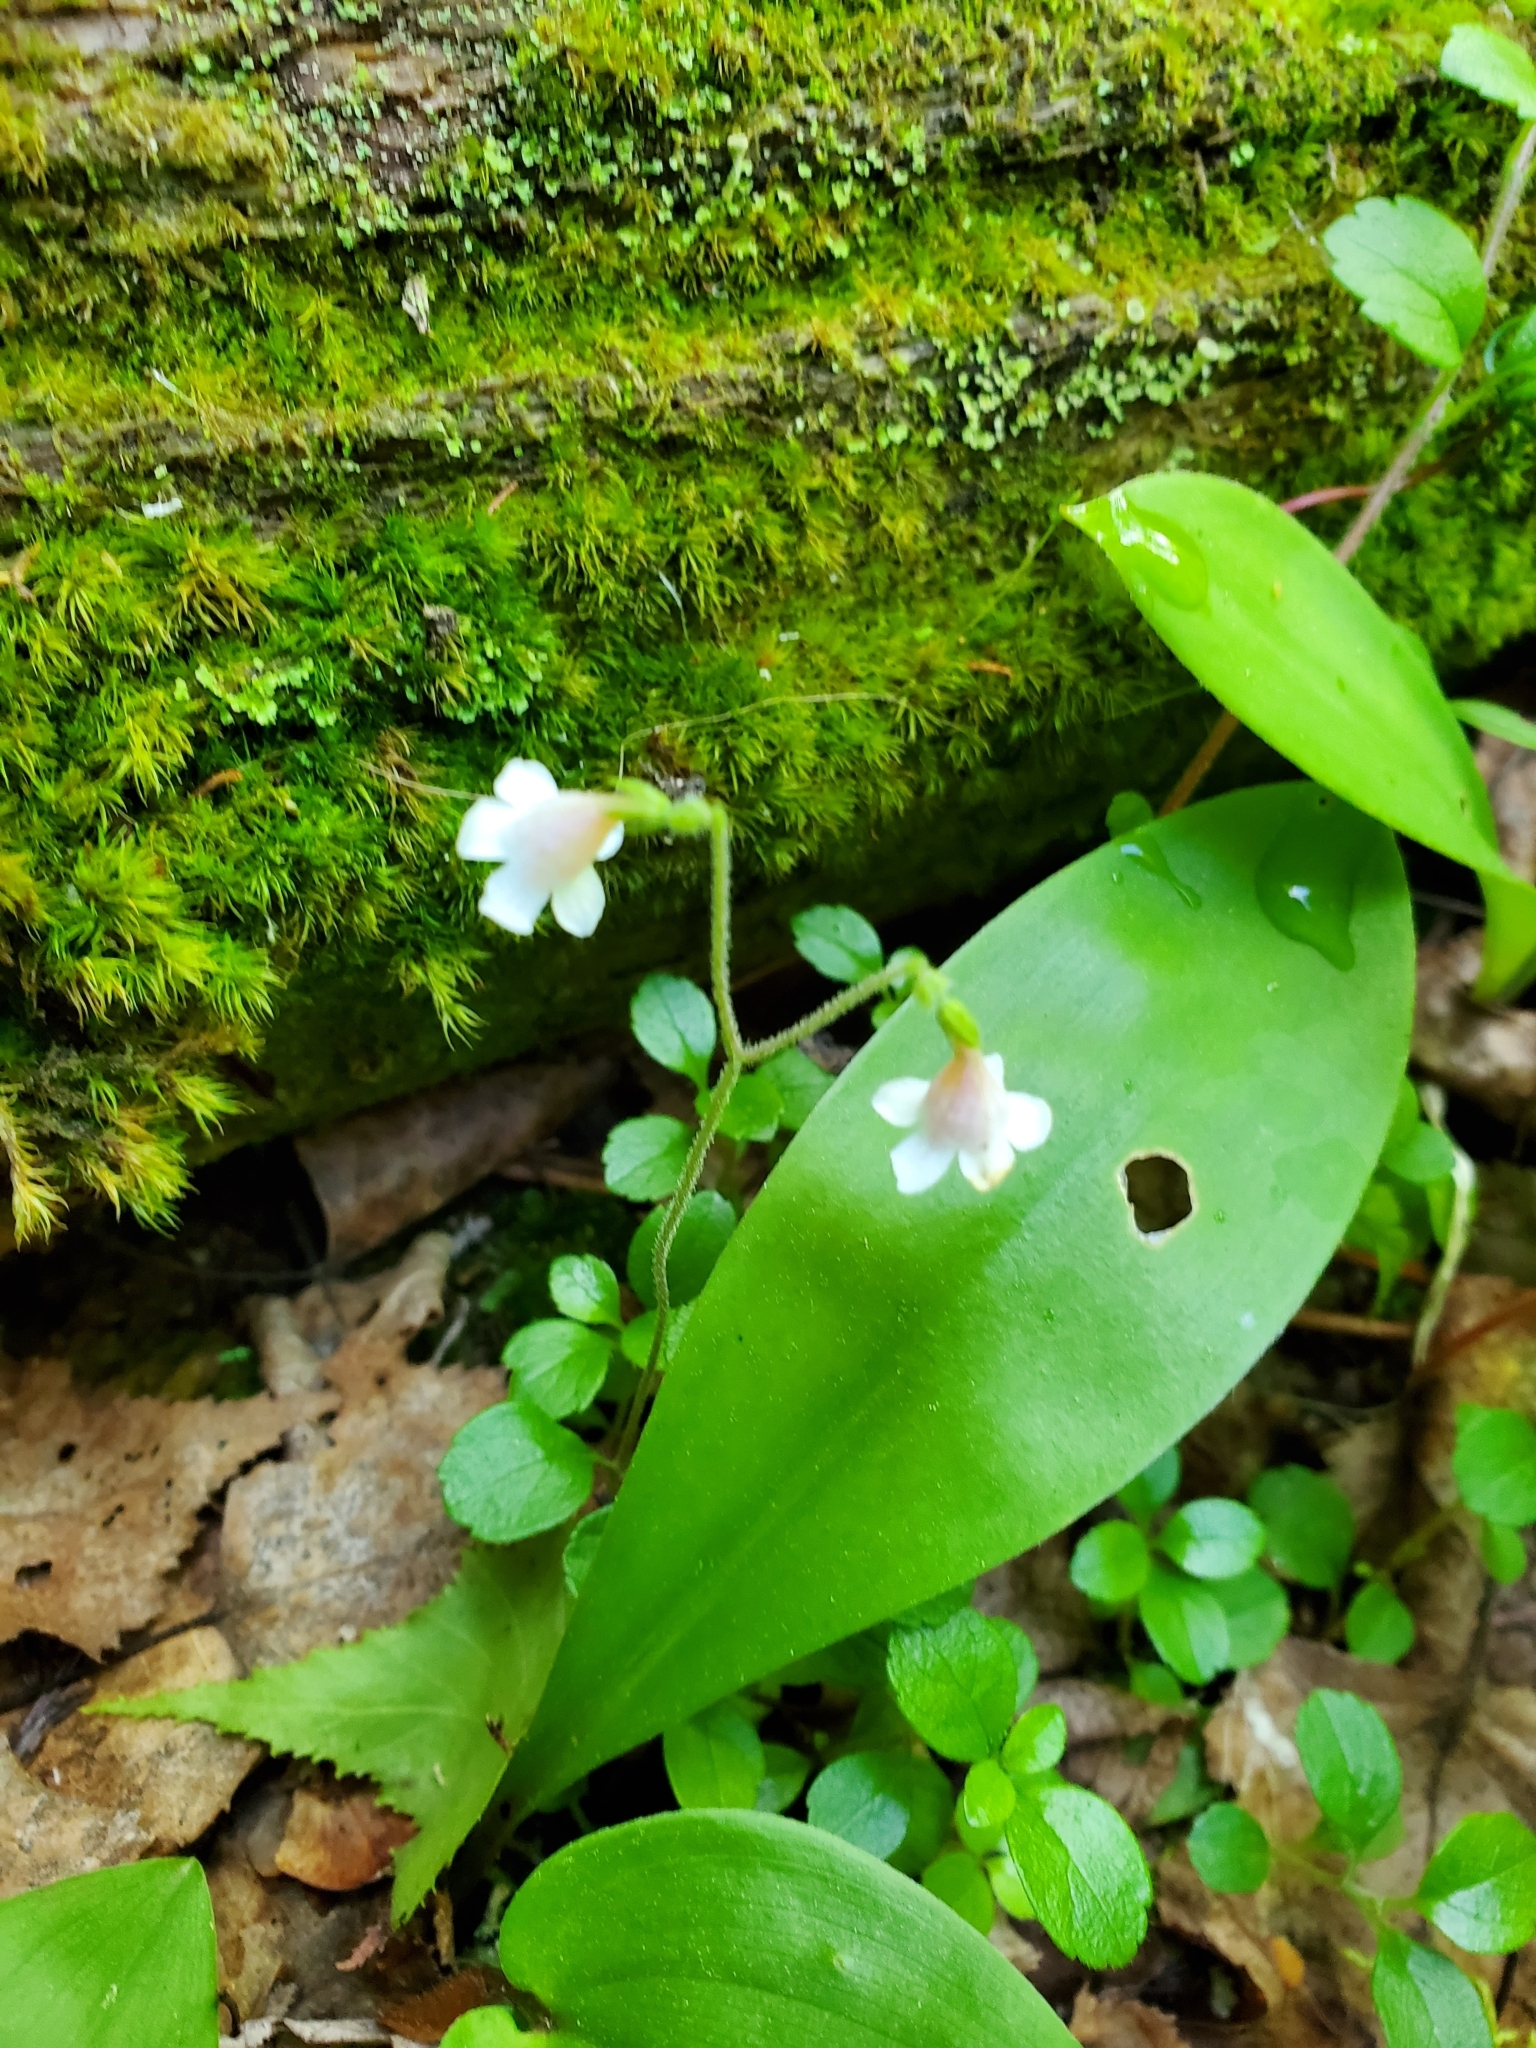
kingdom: Plantae
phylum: Tracheophyta
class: Magnoliopsida
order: Dipsacales
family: Caprifoliaceae
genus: Linnaea
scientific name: Linnaea borealis
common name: Twinflower
